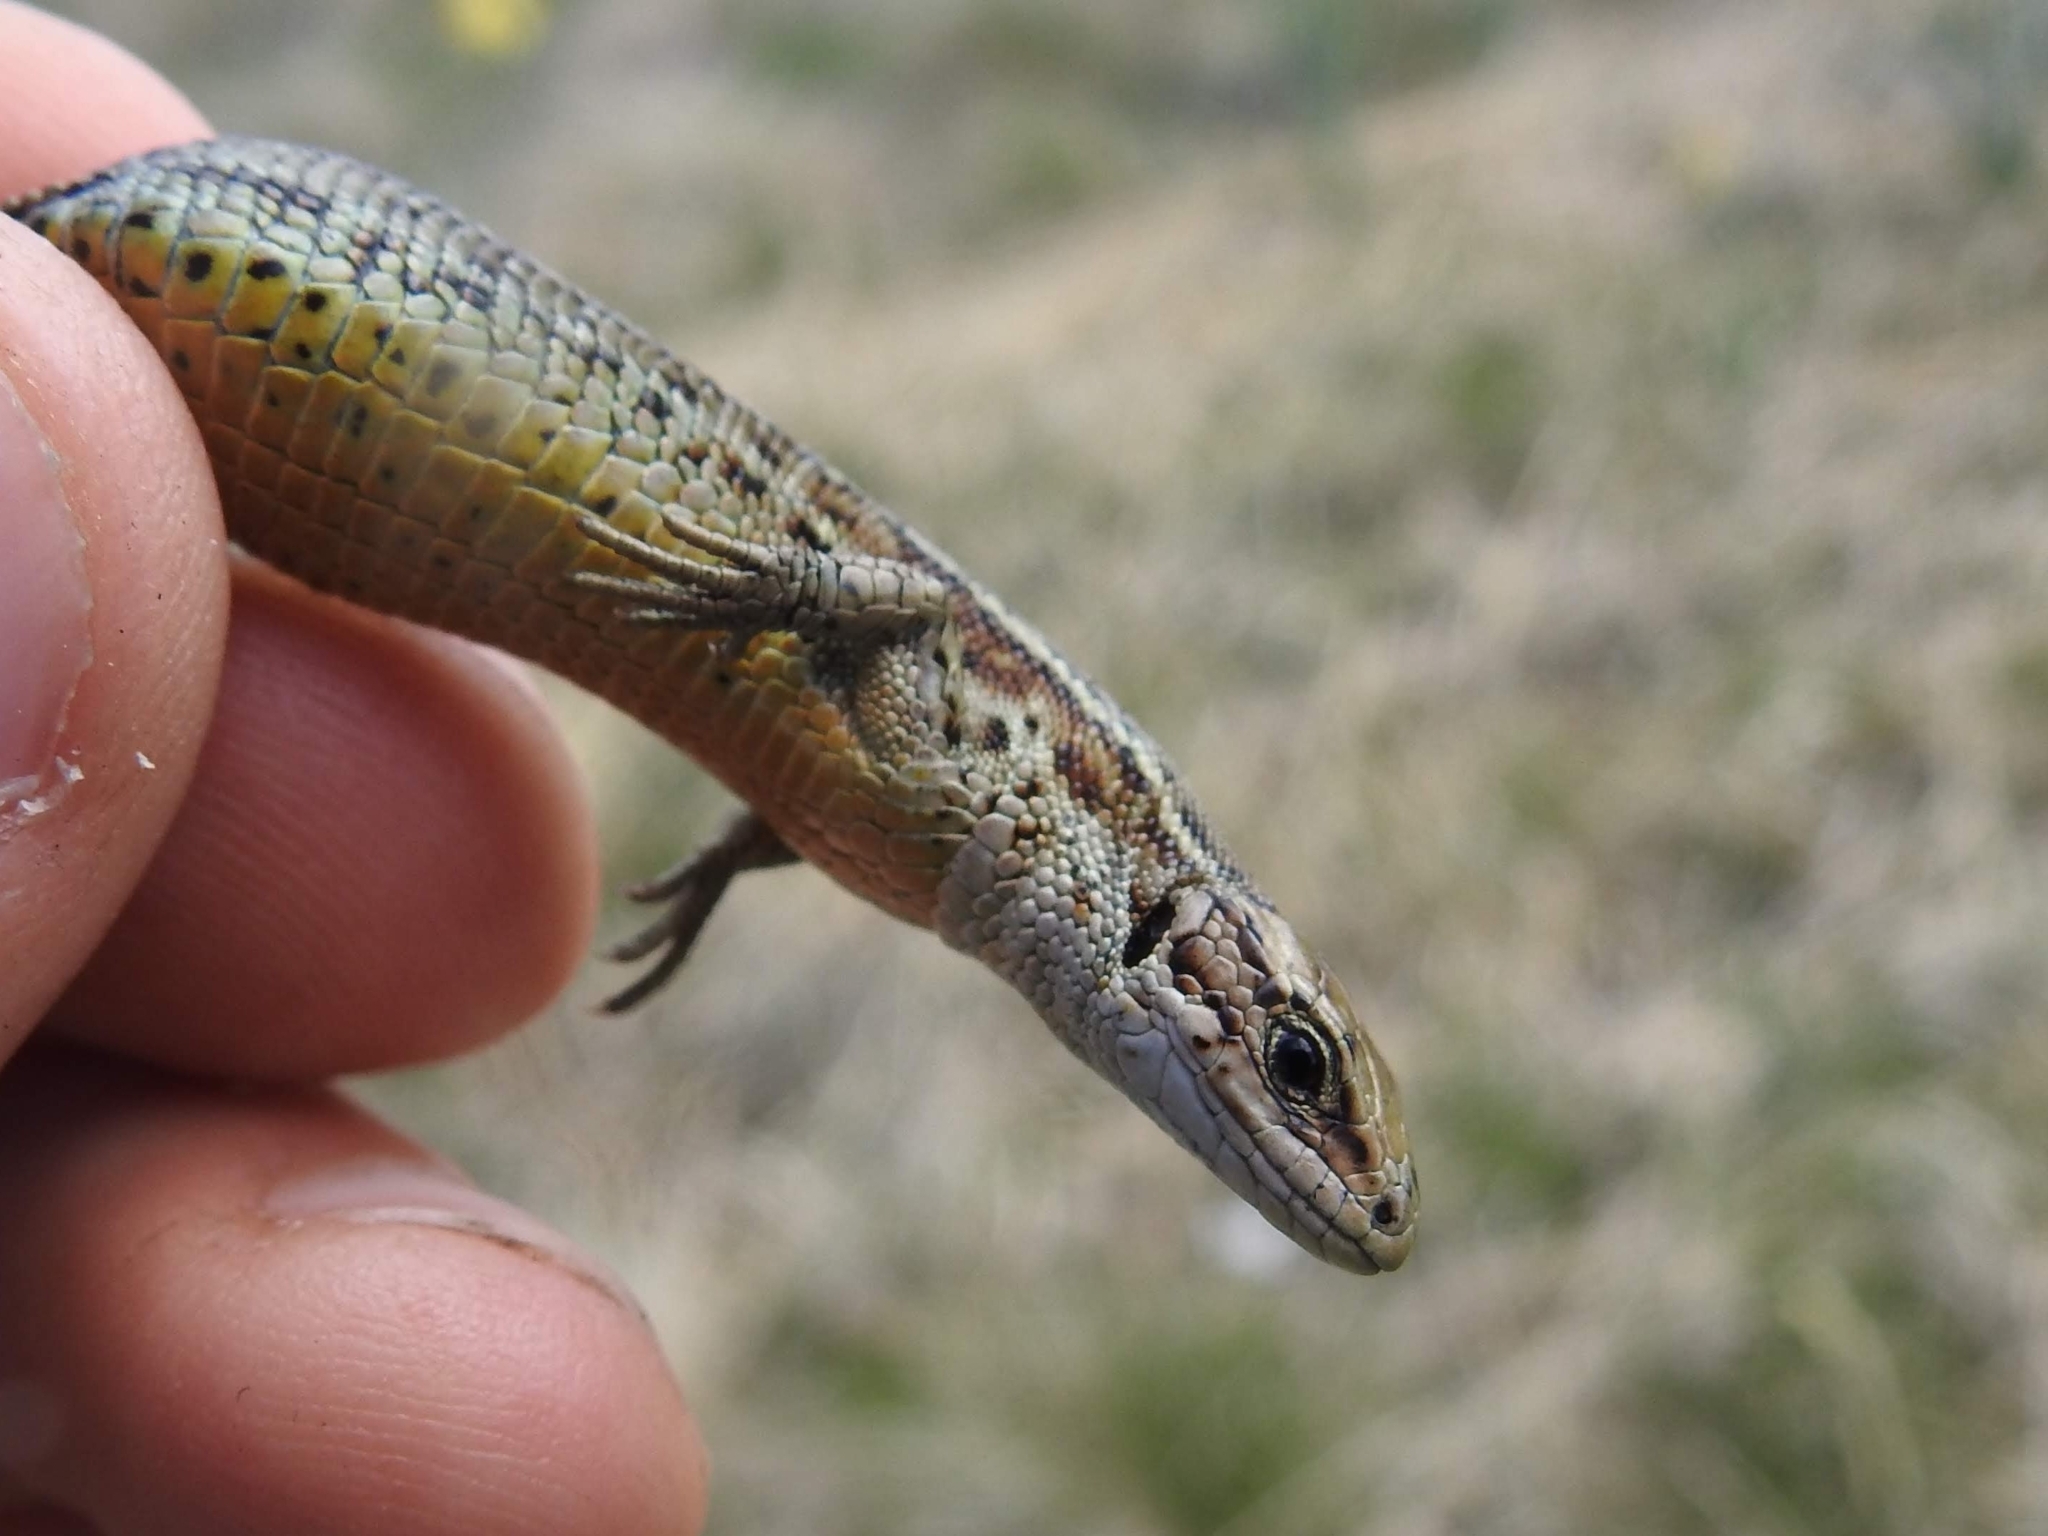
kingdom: Animalia
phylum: Chordata
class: Squamata
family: Lacertidae
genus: Zootoca
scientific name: Zootoca vivipara
